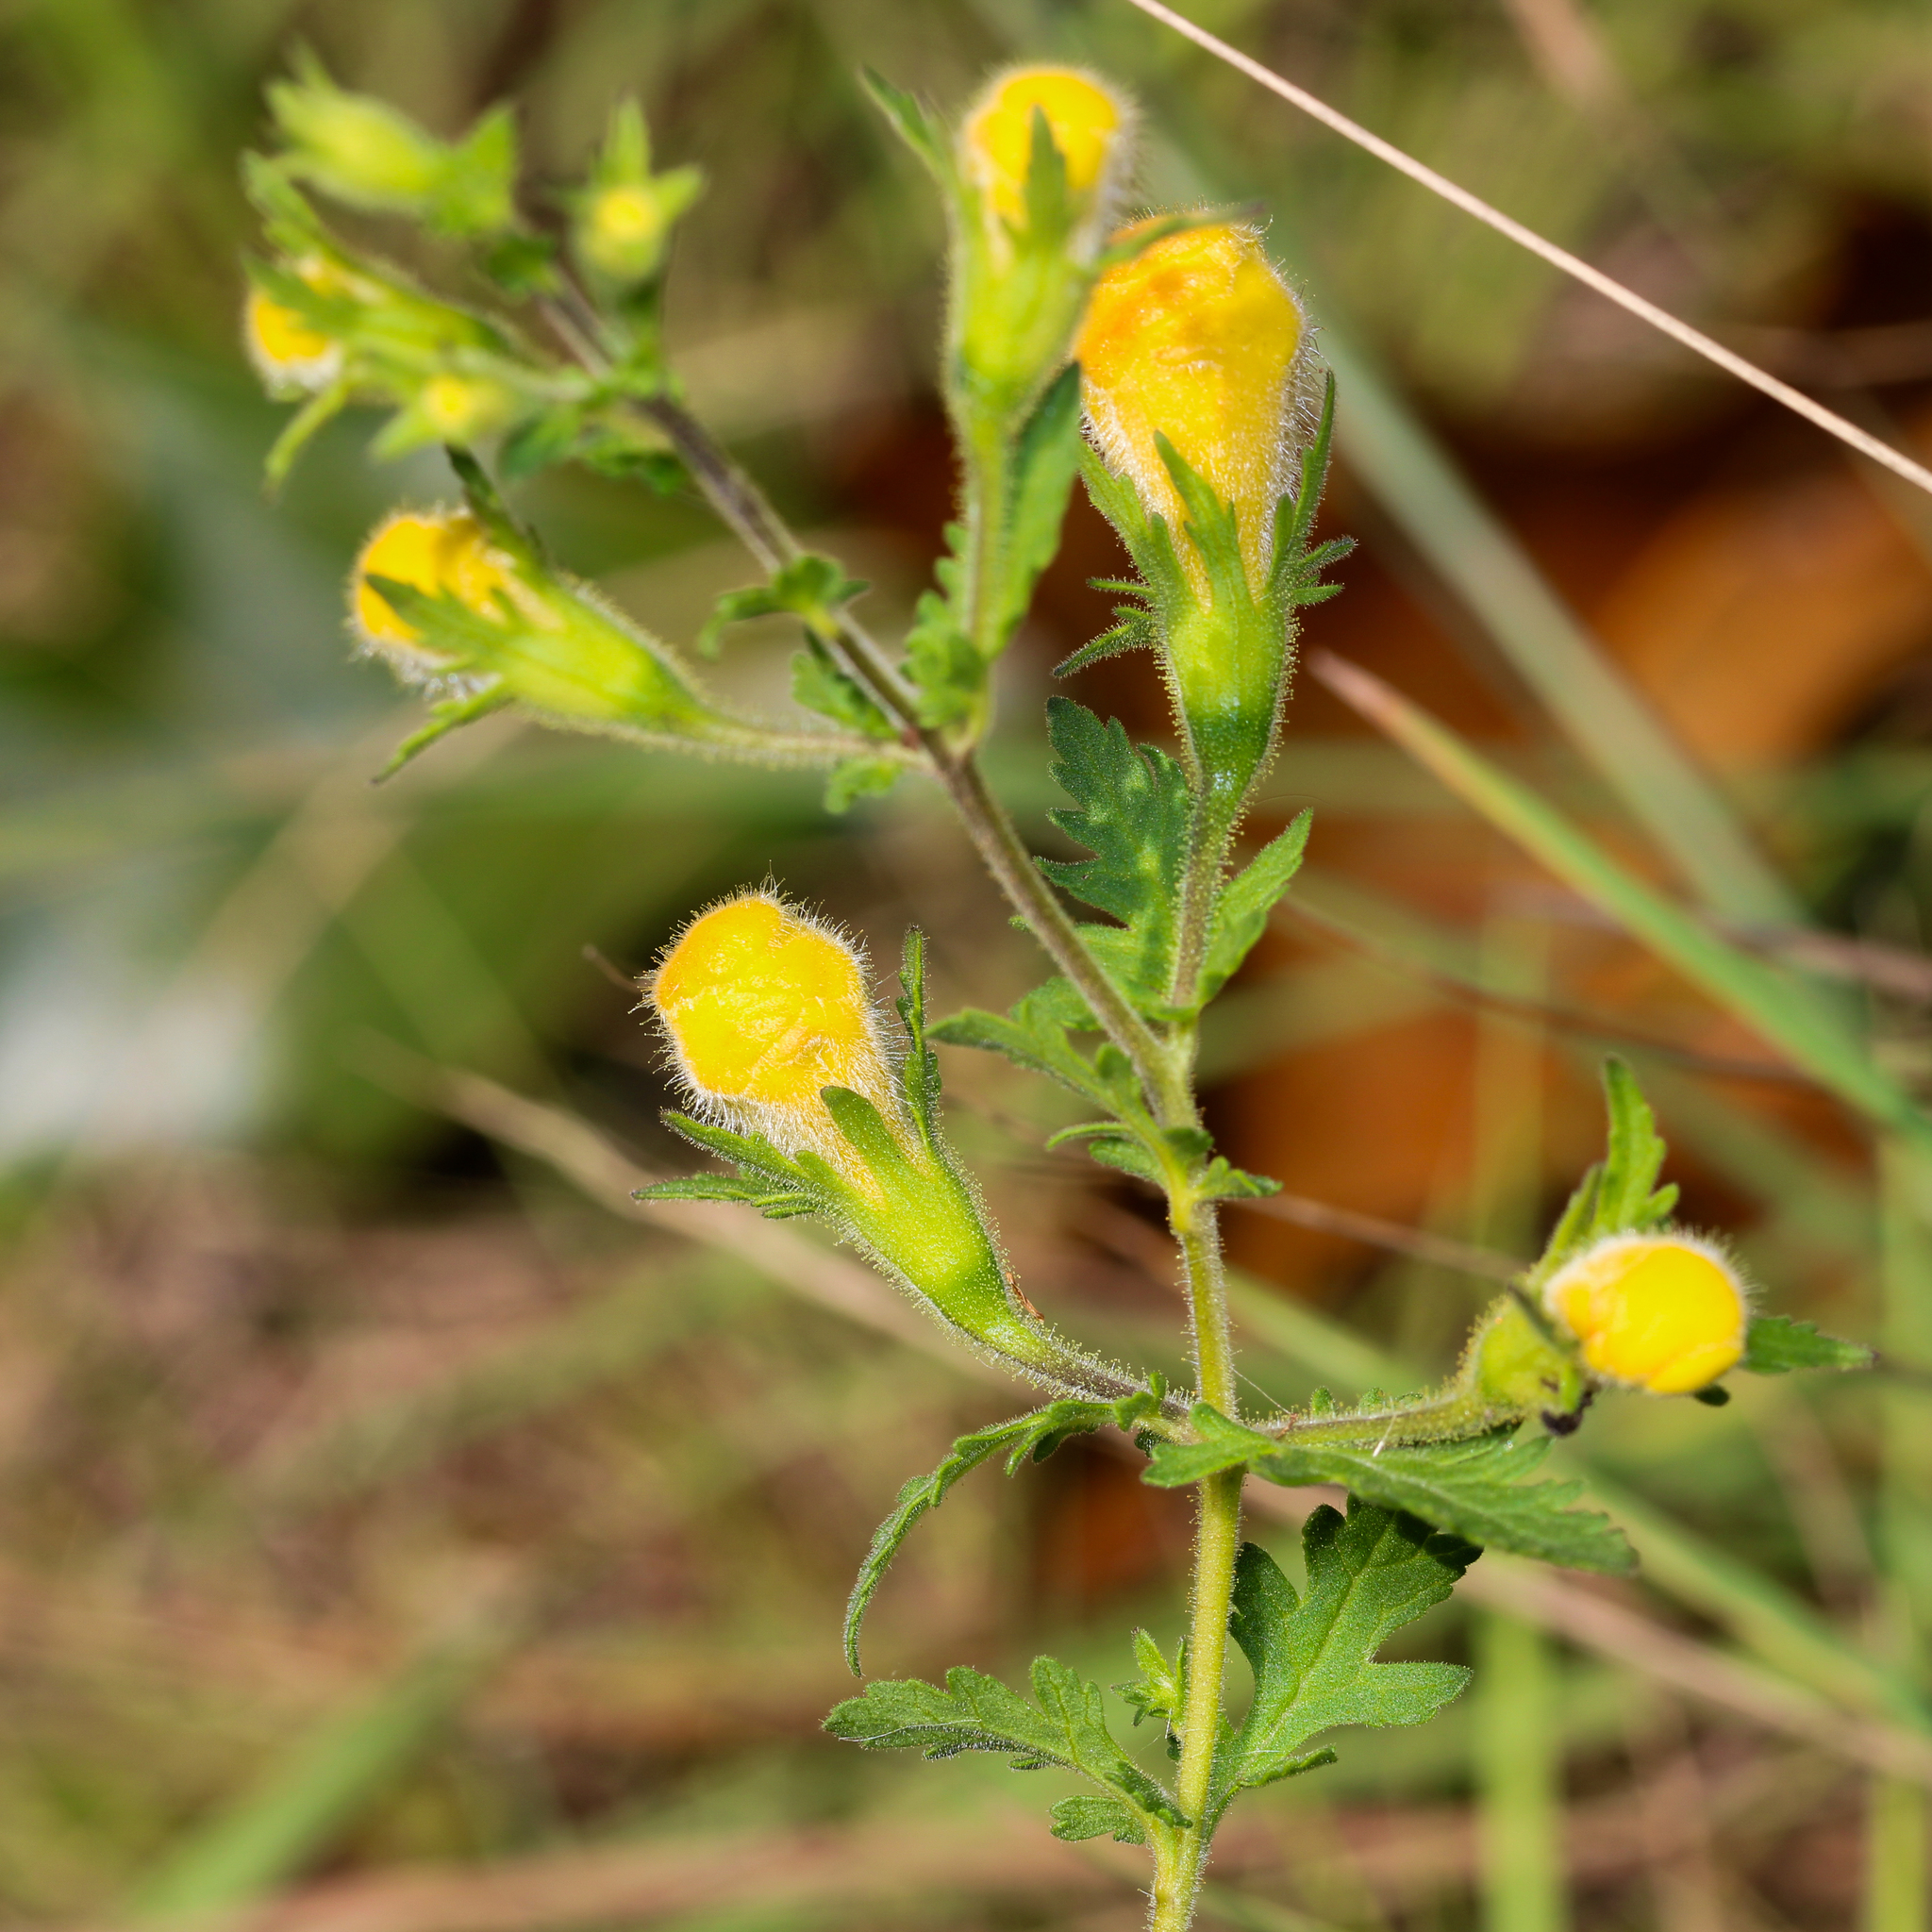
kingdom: Plantae
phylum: Tracheophyta
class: Magnoliopsida
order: Lamiales
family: Orobanchaceae
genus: Aureolaria
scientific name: Aureolaria pedicularia
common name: Annual false foxglove
